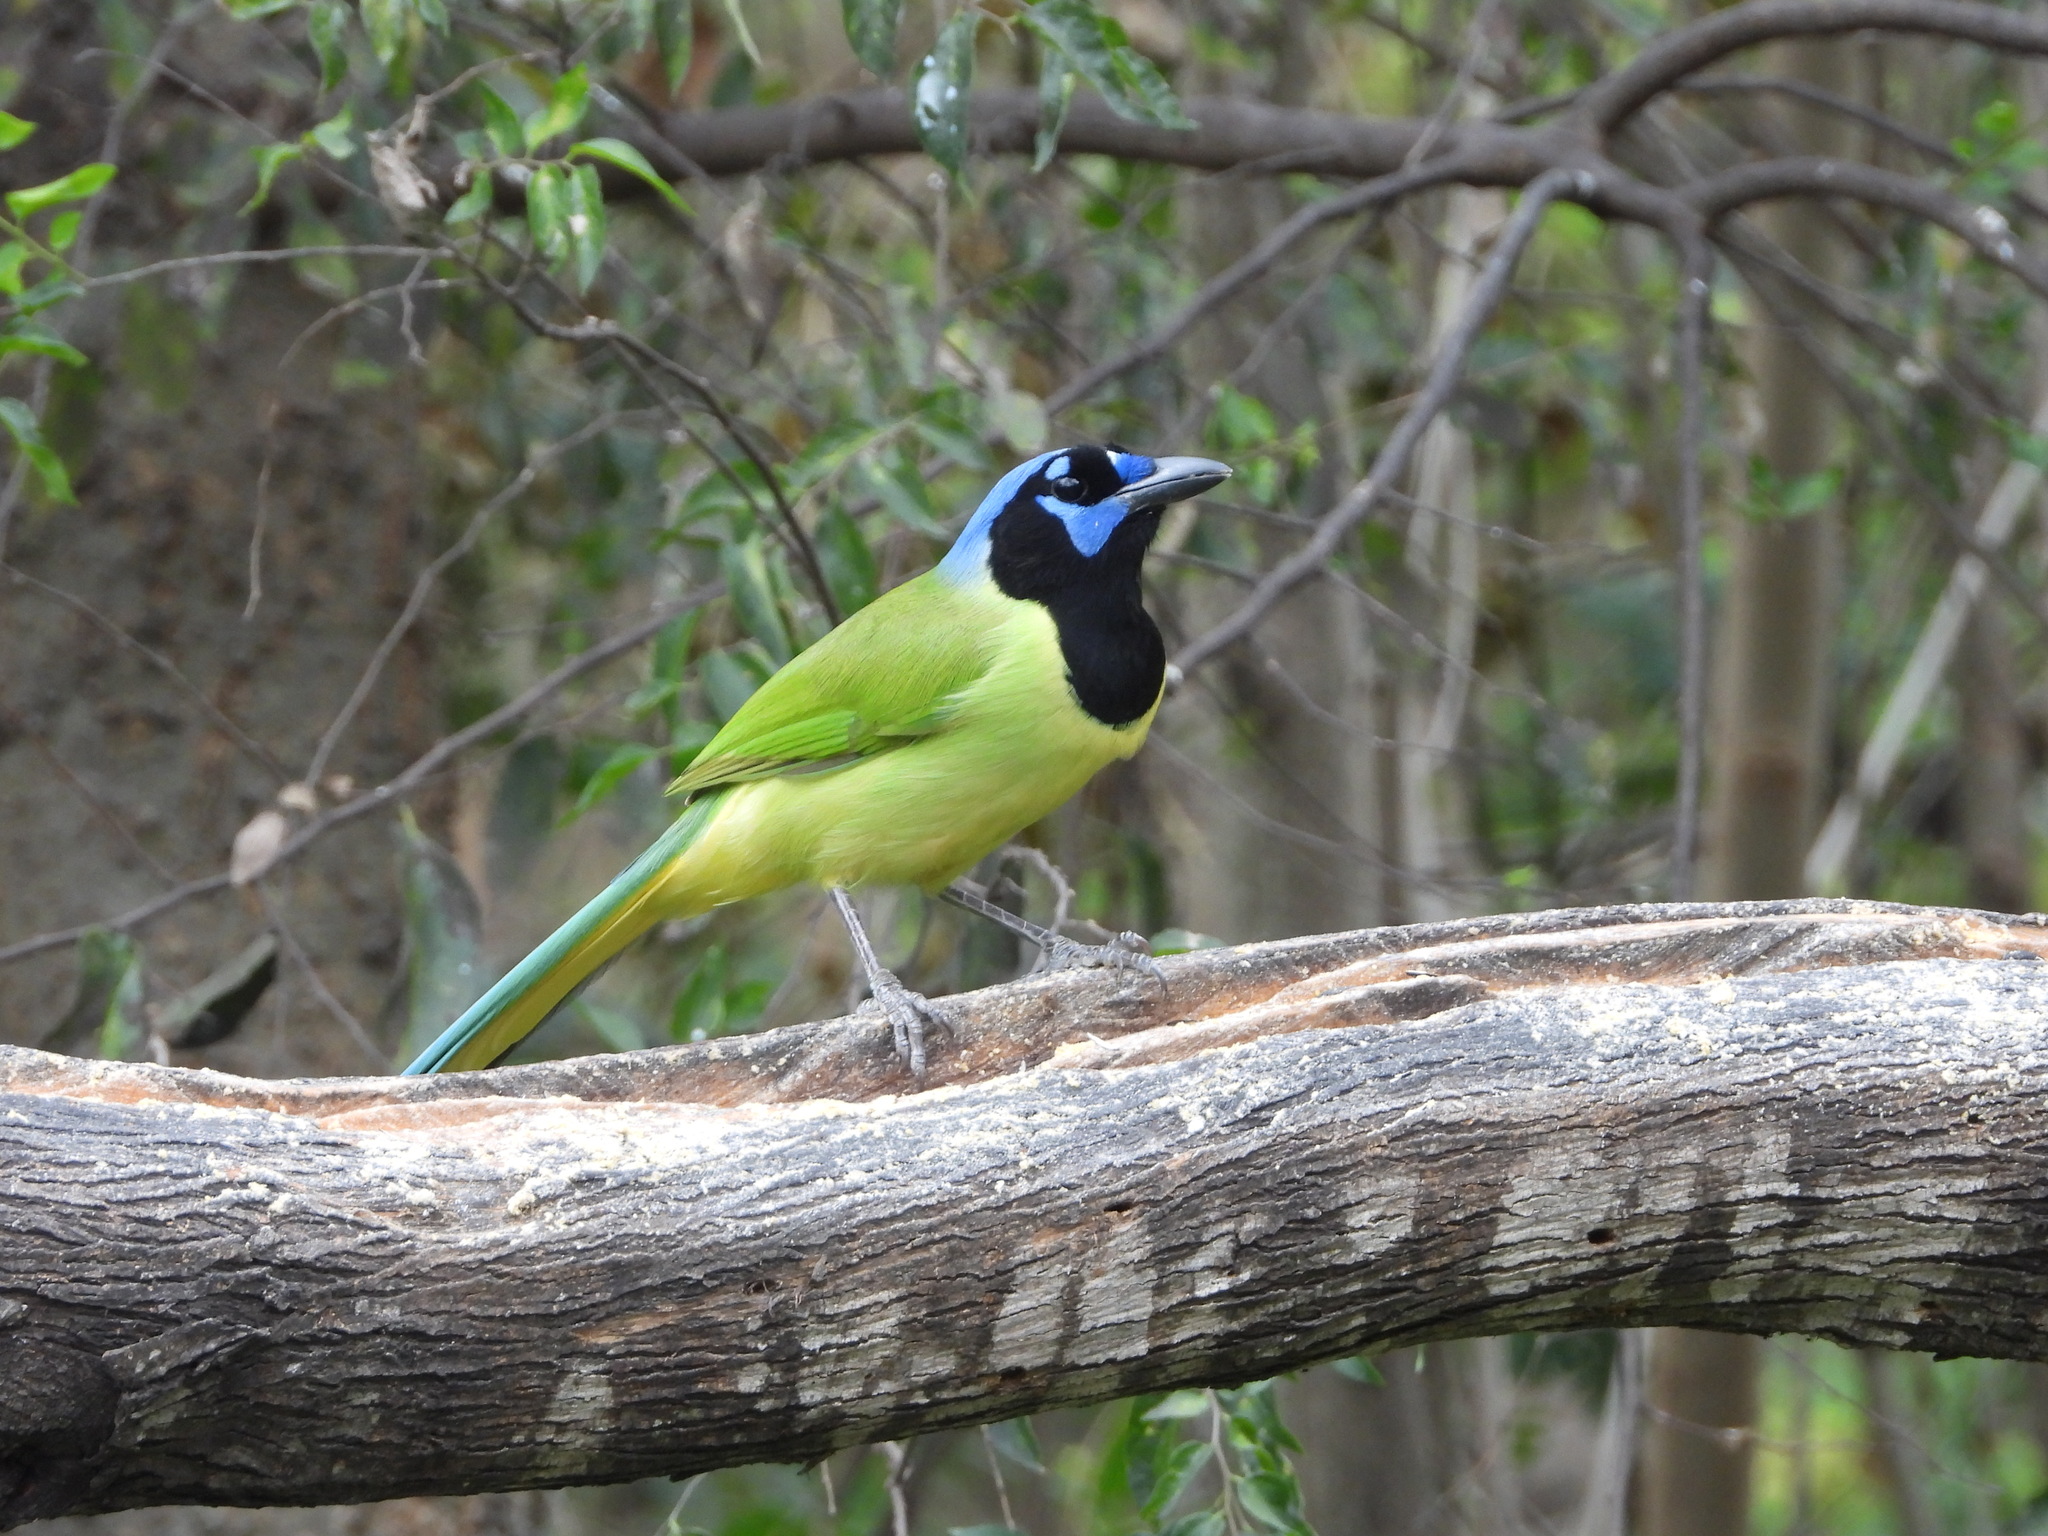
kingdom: Animalia
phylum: Chordata
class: Aves
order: Passeriformes
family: Corvidae
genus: Cyanocorax
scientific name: Cyanocorax yncas
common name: Green jay
